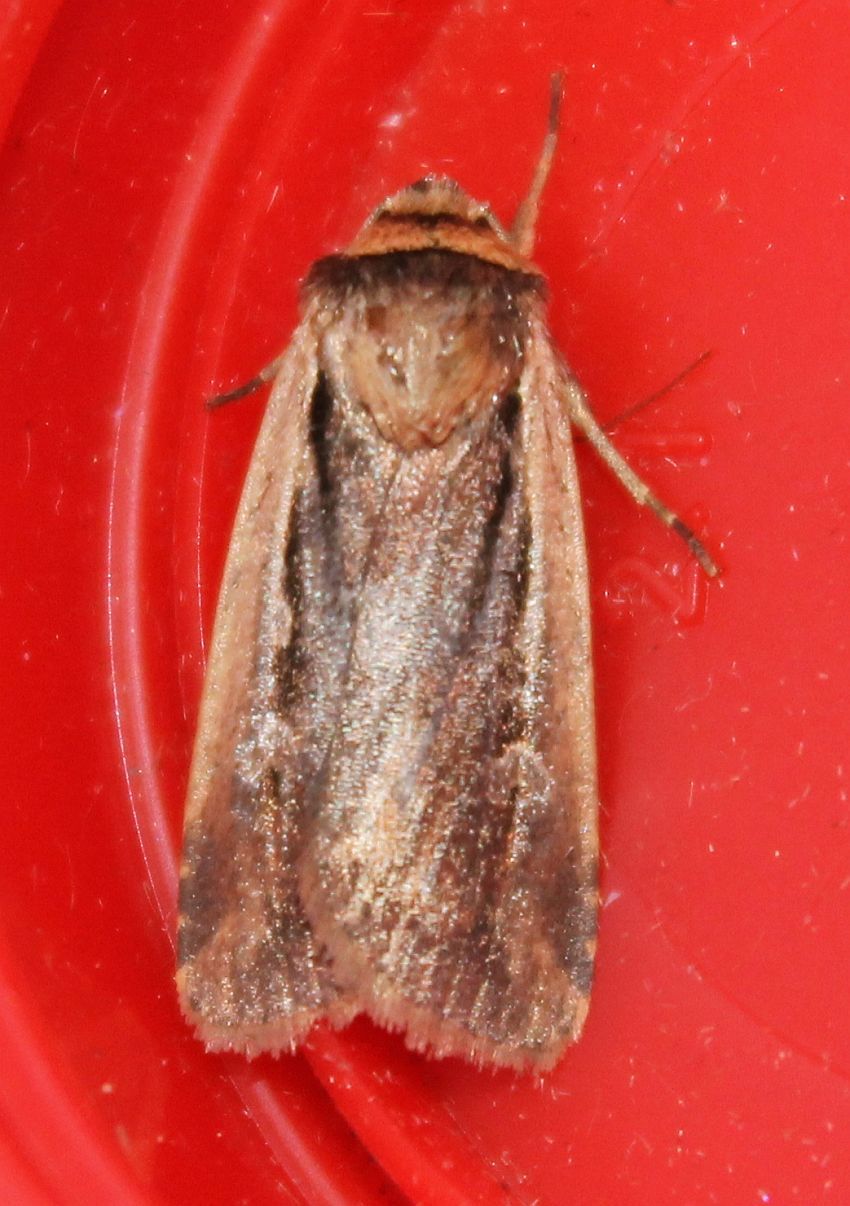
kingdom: Animalia
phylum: Arthropoda
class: Insecta
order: Lepidoptera
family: Noctuidae
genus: Ochropleura
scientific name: Ochropleura plecta
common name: Flame shoulder
